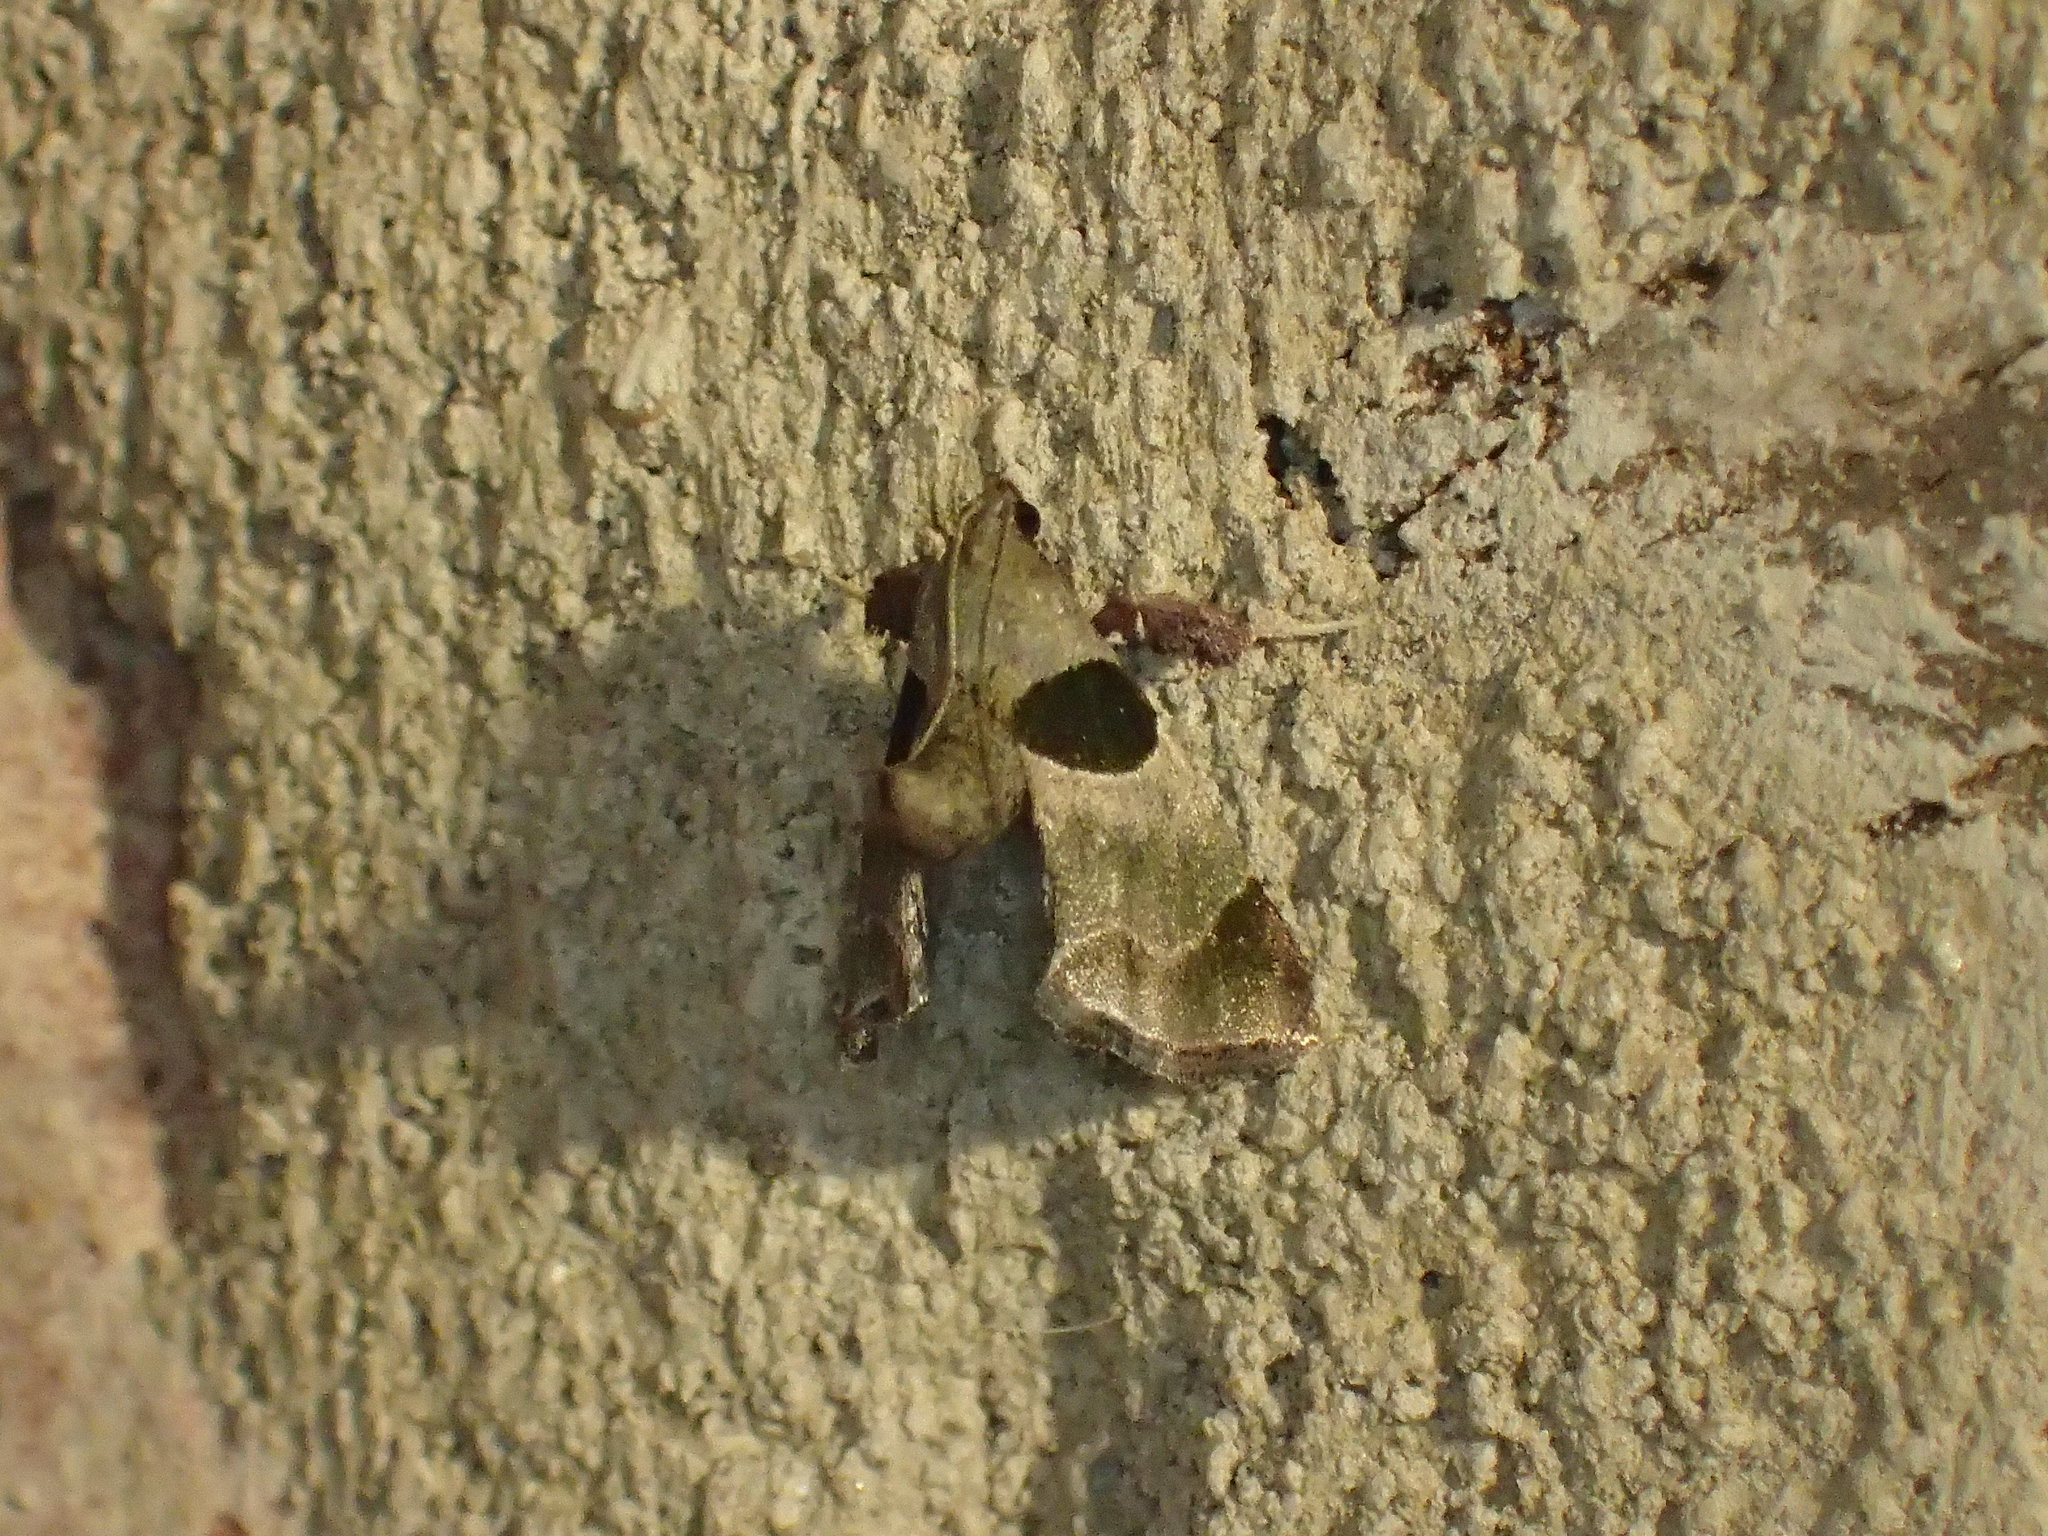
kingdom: Animalia
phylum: Arthropoda
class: Insecta
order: Lepidoptera
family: Pyralidae
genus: Tosale
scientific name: Tosale oviplagalis
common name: Dimorphic tosale moth
